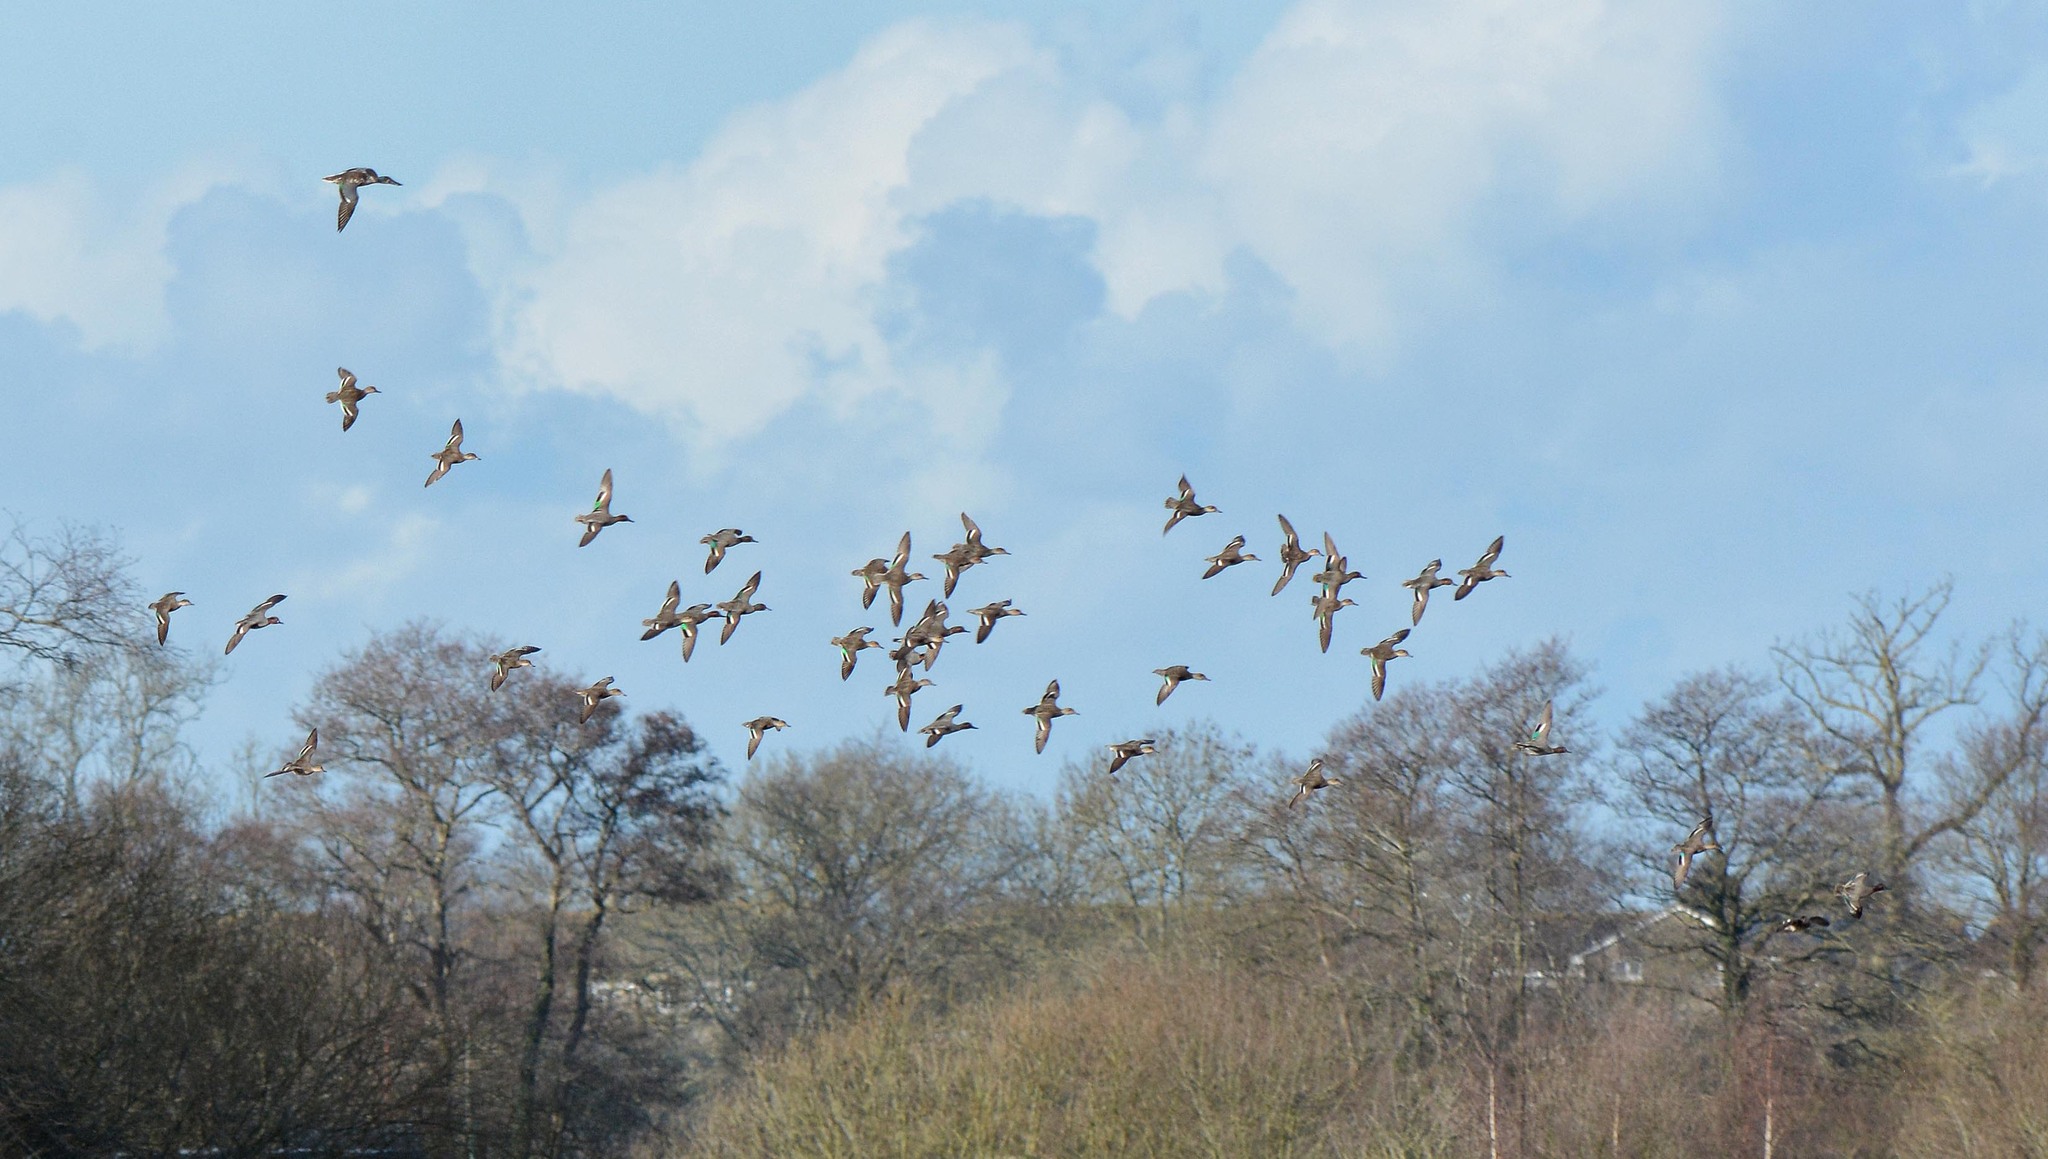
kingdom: Animalia
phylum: Chordata
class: Aves
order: Anseriformes
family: Anatidae
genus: Anas
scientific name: Anas crecca
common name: Eurasian teal
